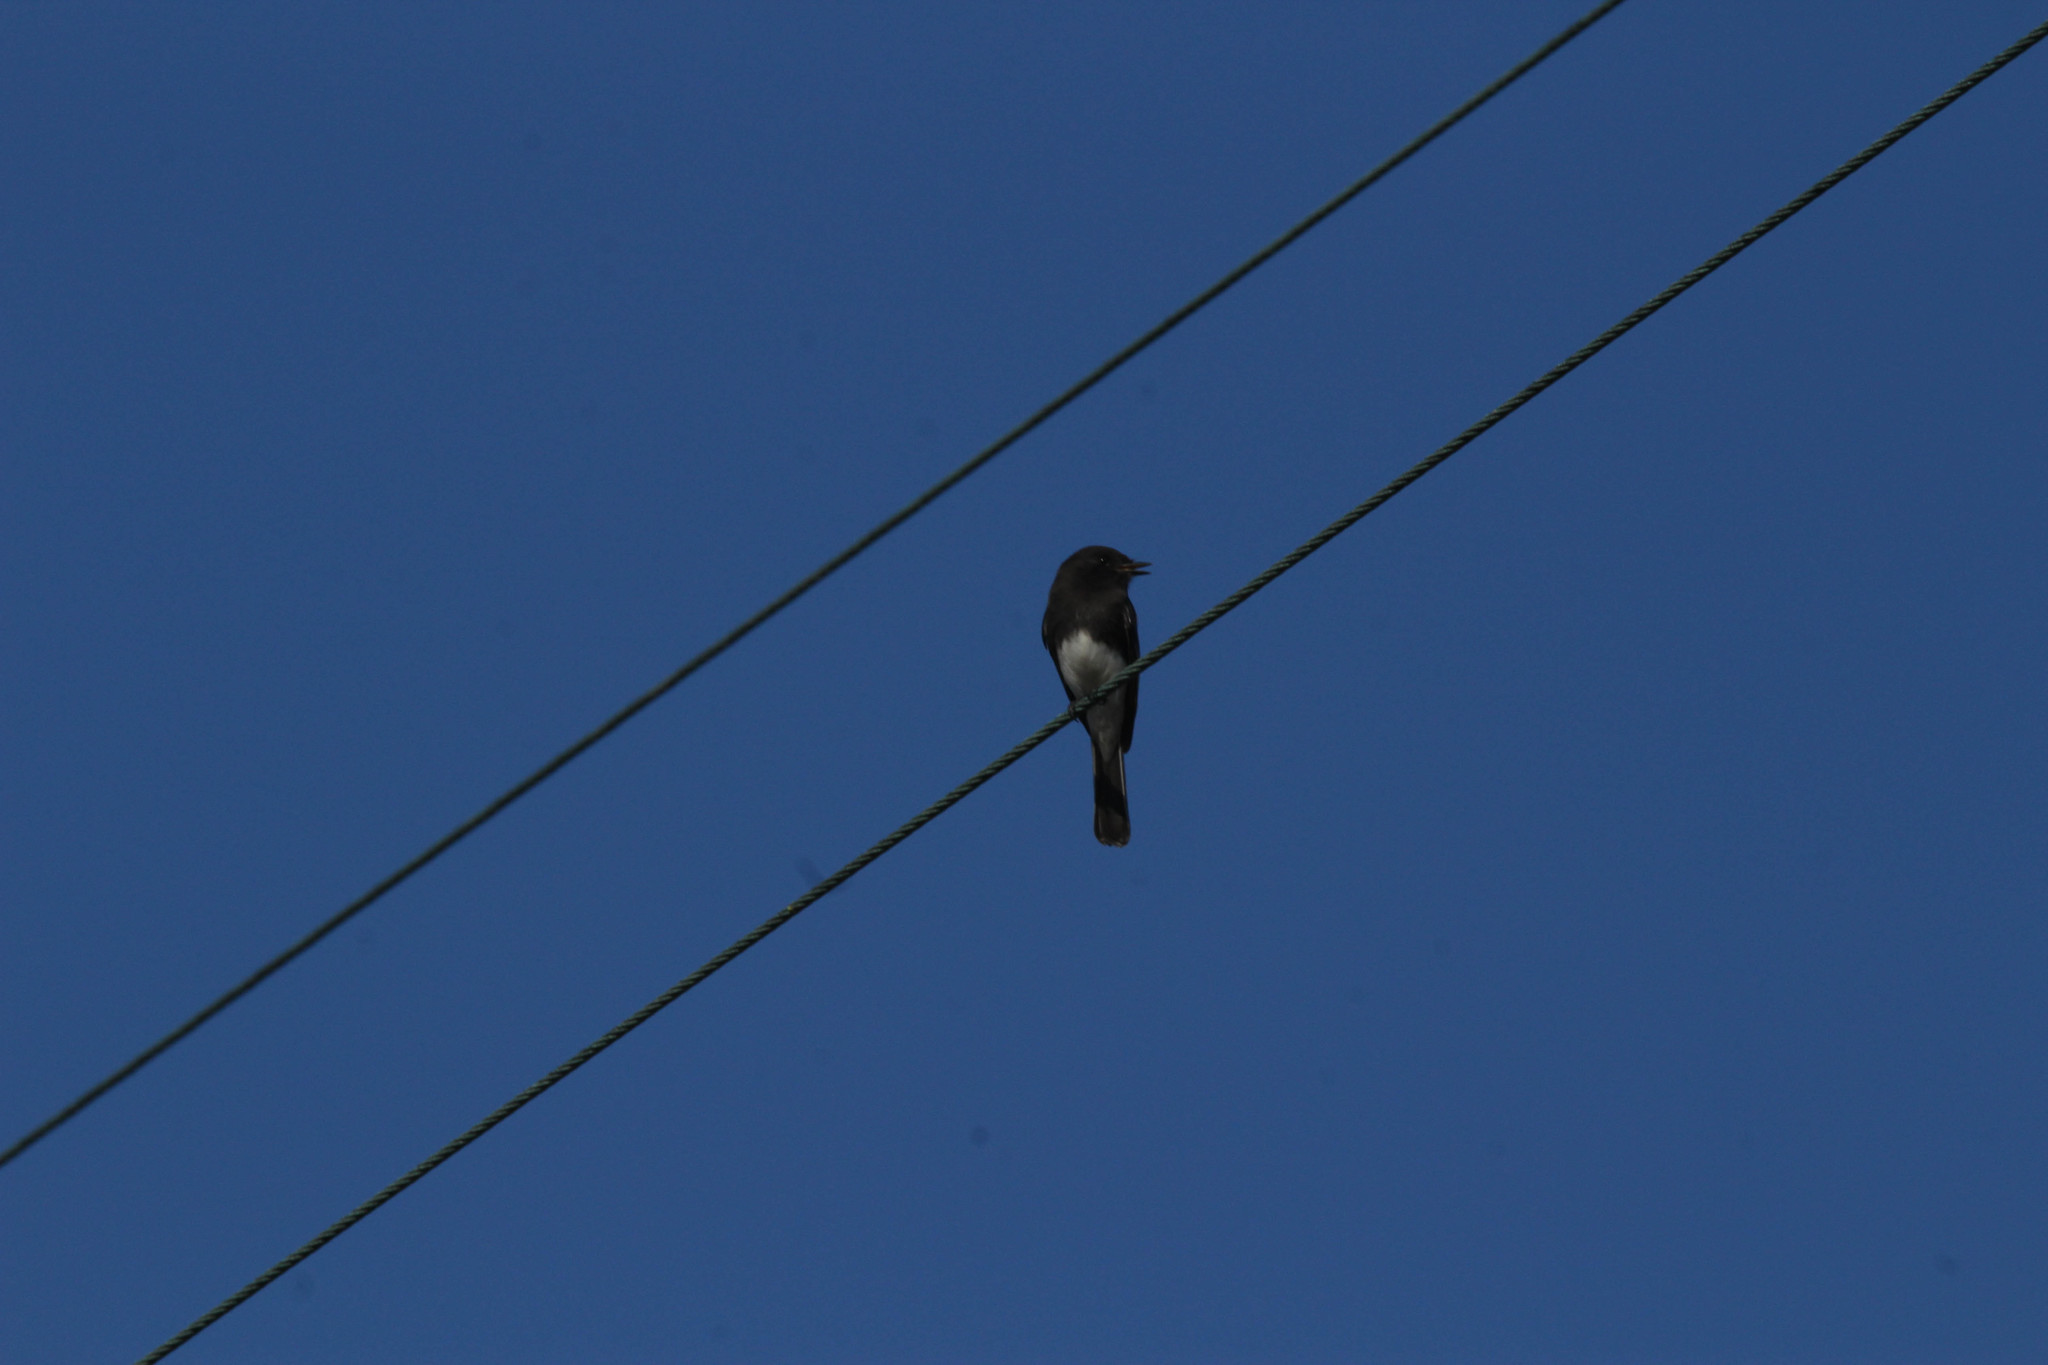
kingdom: Animalia
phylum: Chordata
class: Aves
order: Passeriformes
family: Tyrannidae
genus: Sayornis
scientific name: Sayornis nigricans
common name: Black phoebe
